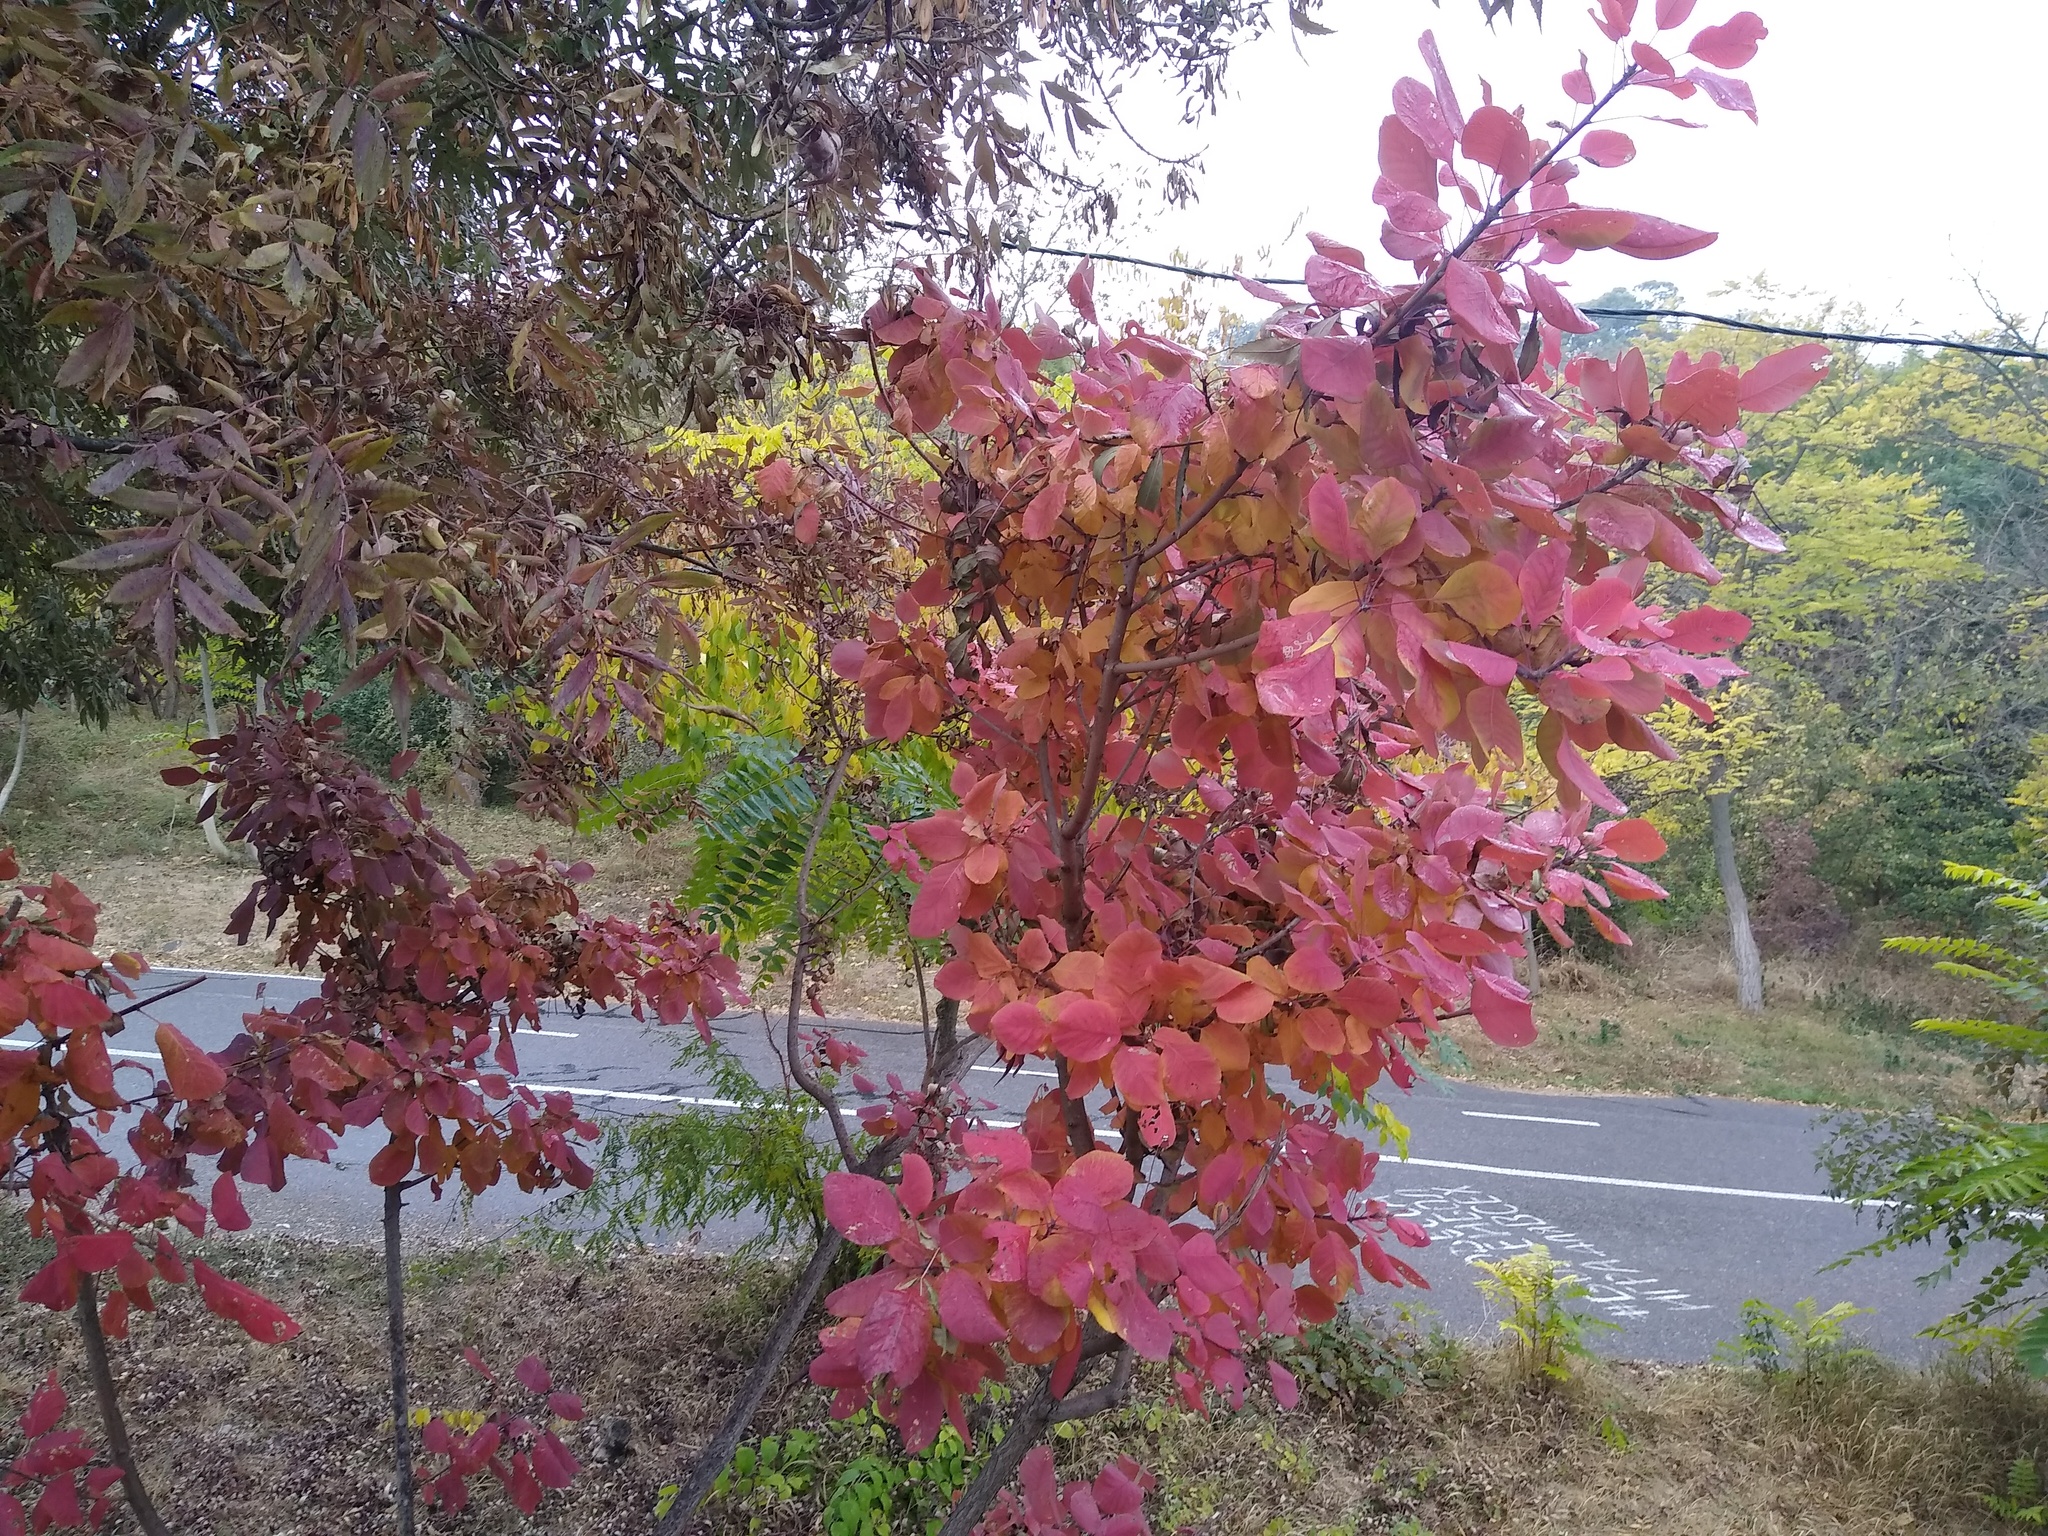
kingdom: Plantae
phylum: Tracheophyta
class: Magnoliopsida
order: Sapindales
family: Anacardiaceae
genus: Cotinus
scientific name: Cotinus coggygria
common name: Smoke-tree
